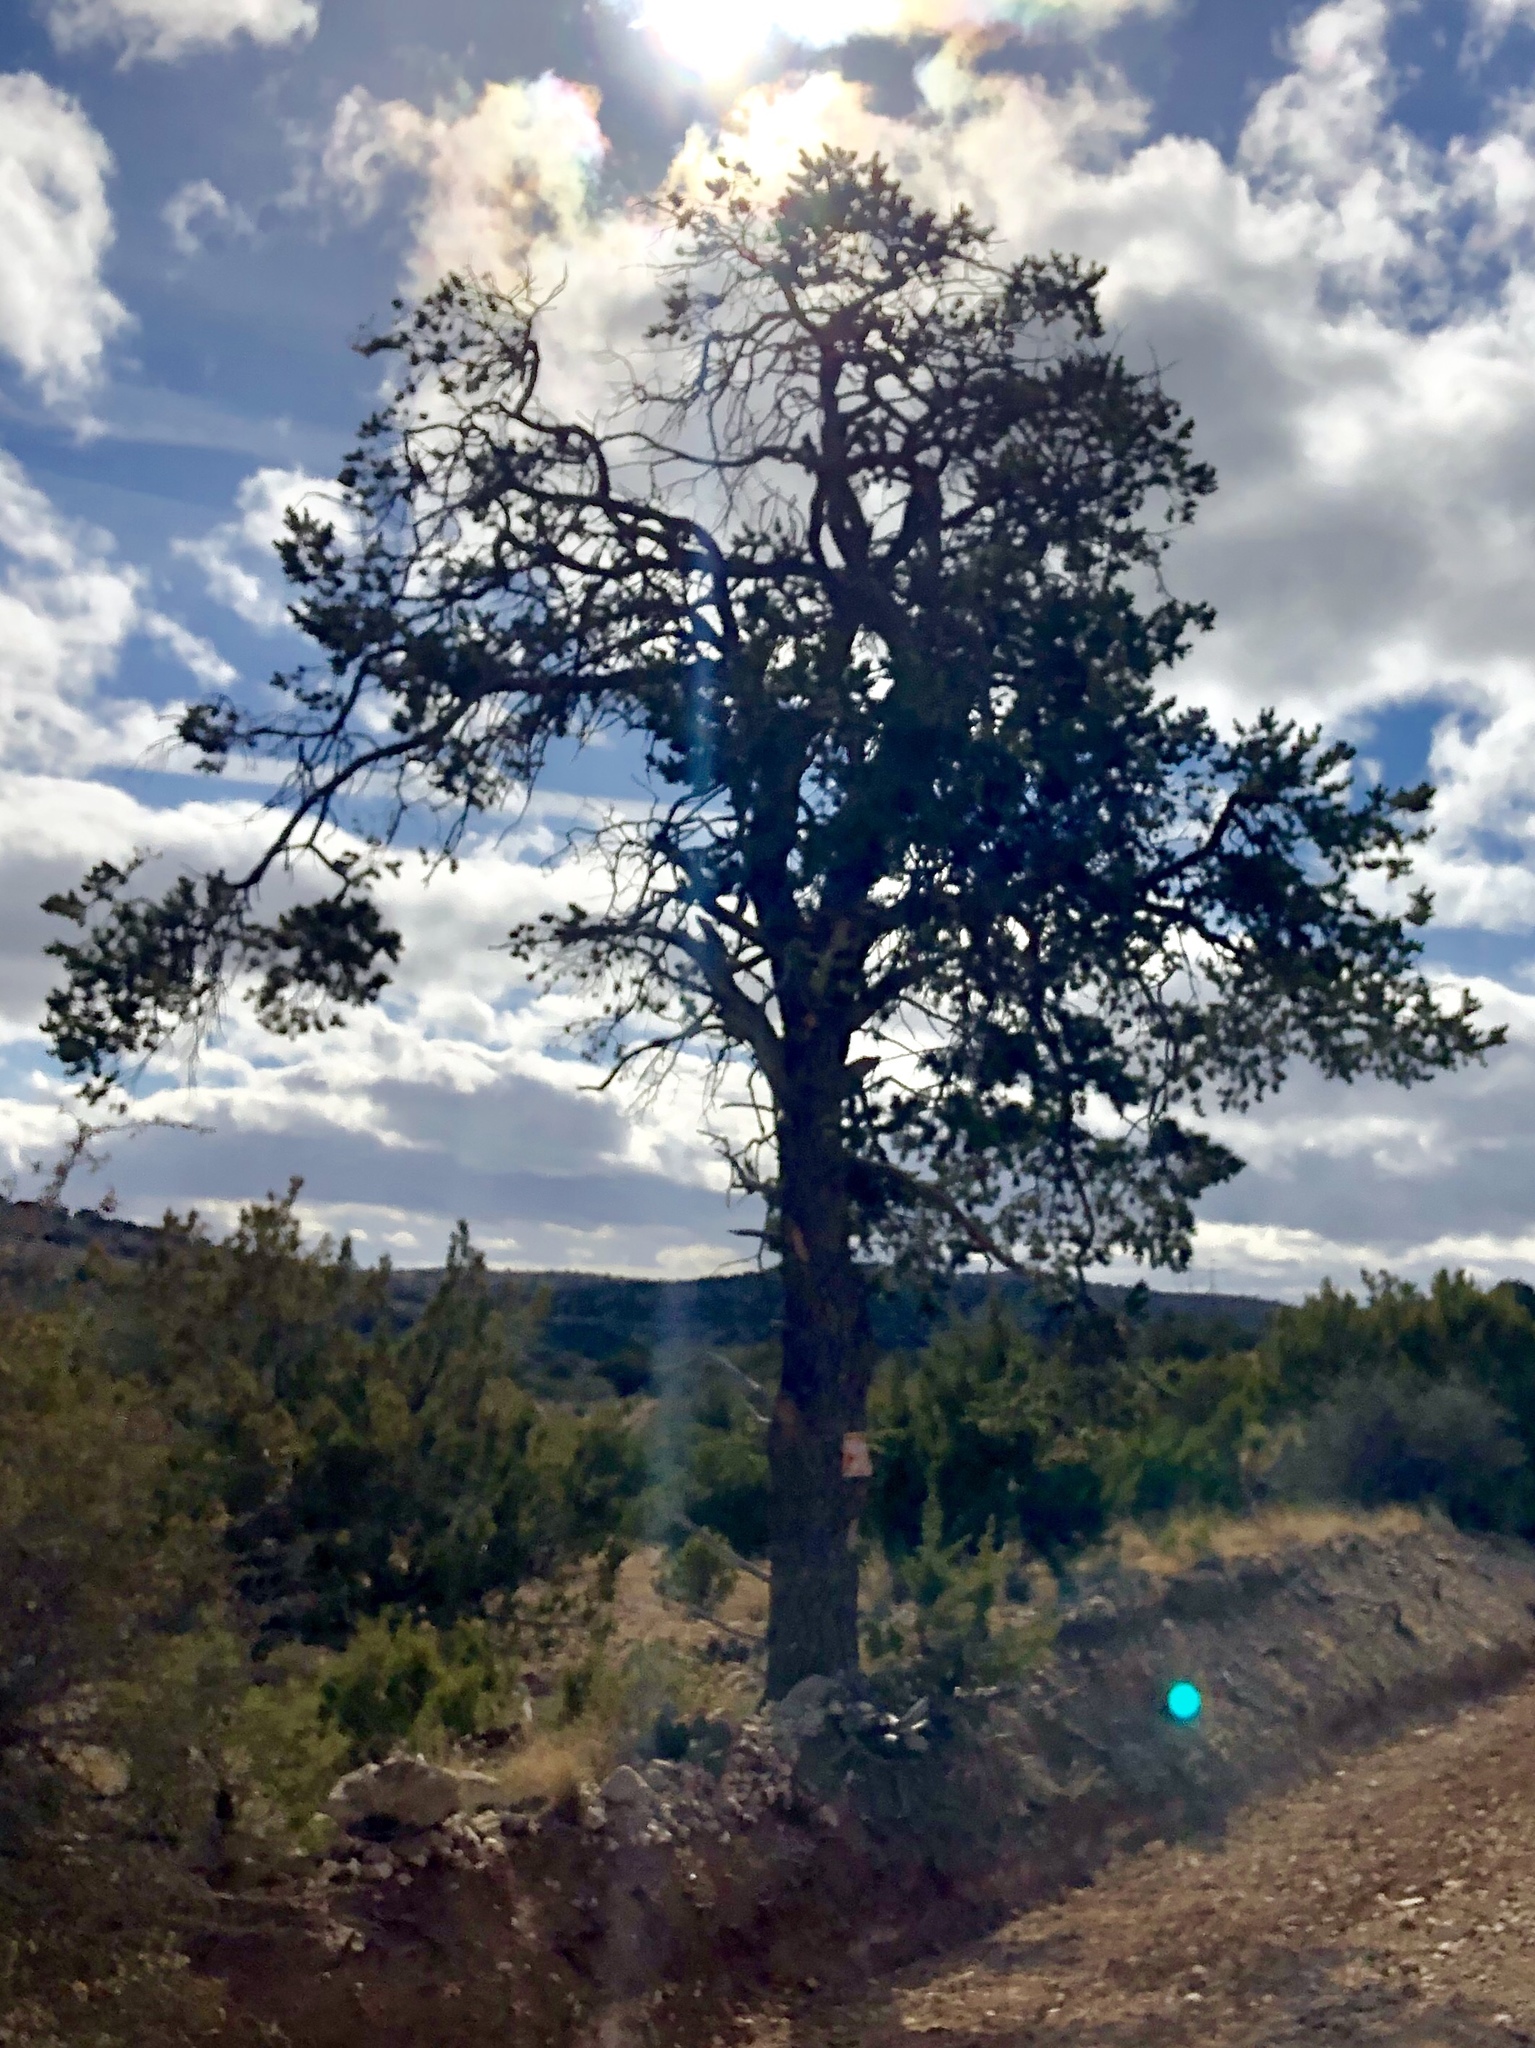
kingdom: Plantae
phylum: Tracheophyta
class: Pinopsida
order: Pinales
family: Pinaceae
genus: Pinus
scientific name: Pinus edulis
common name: Colorado pinyon
